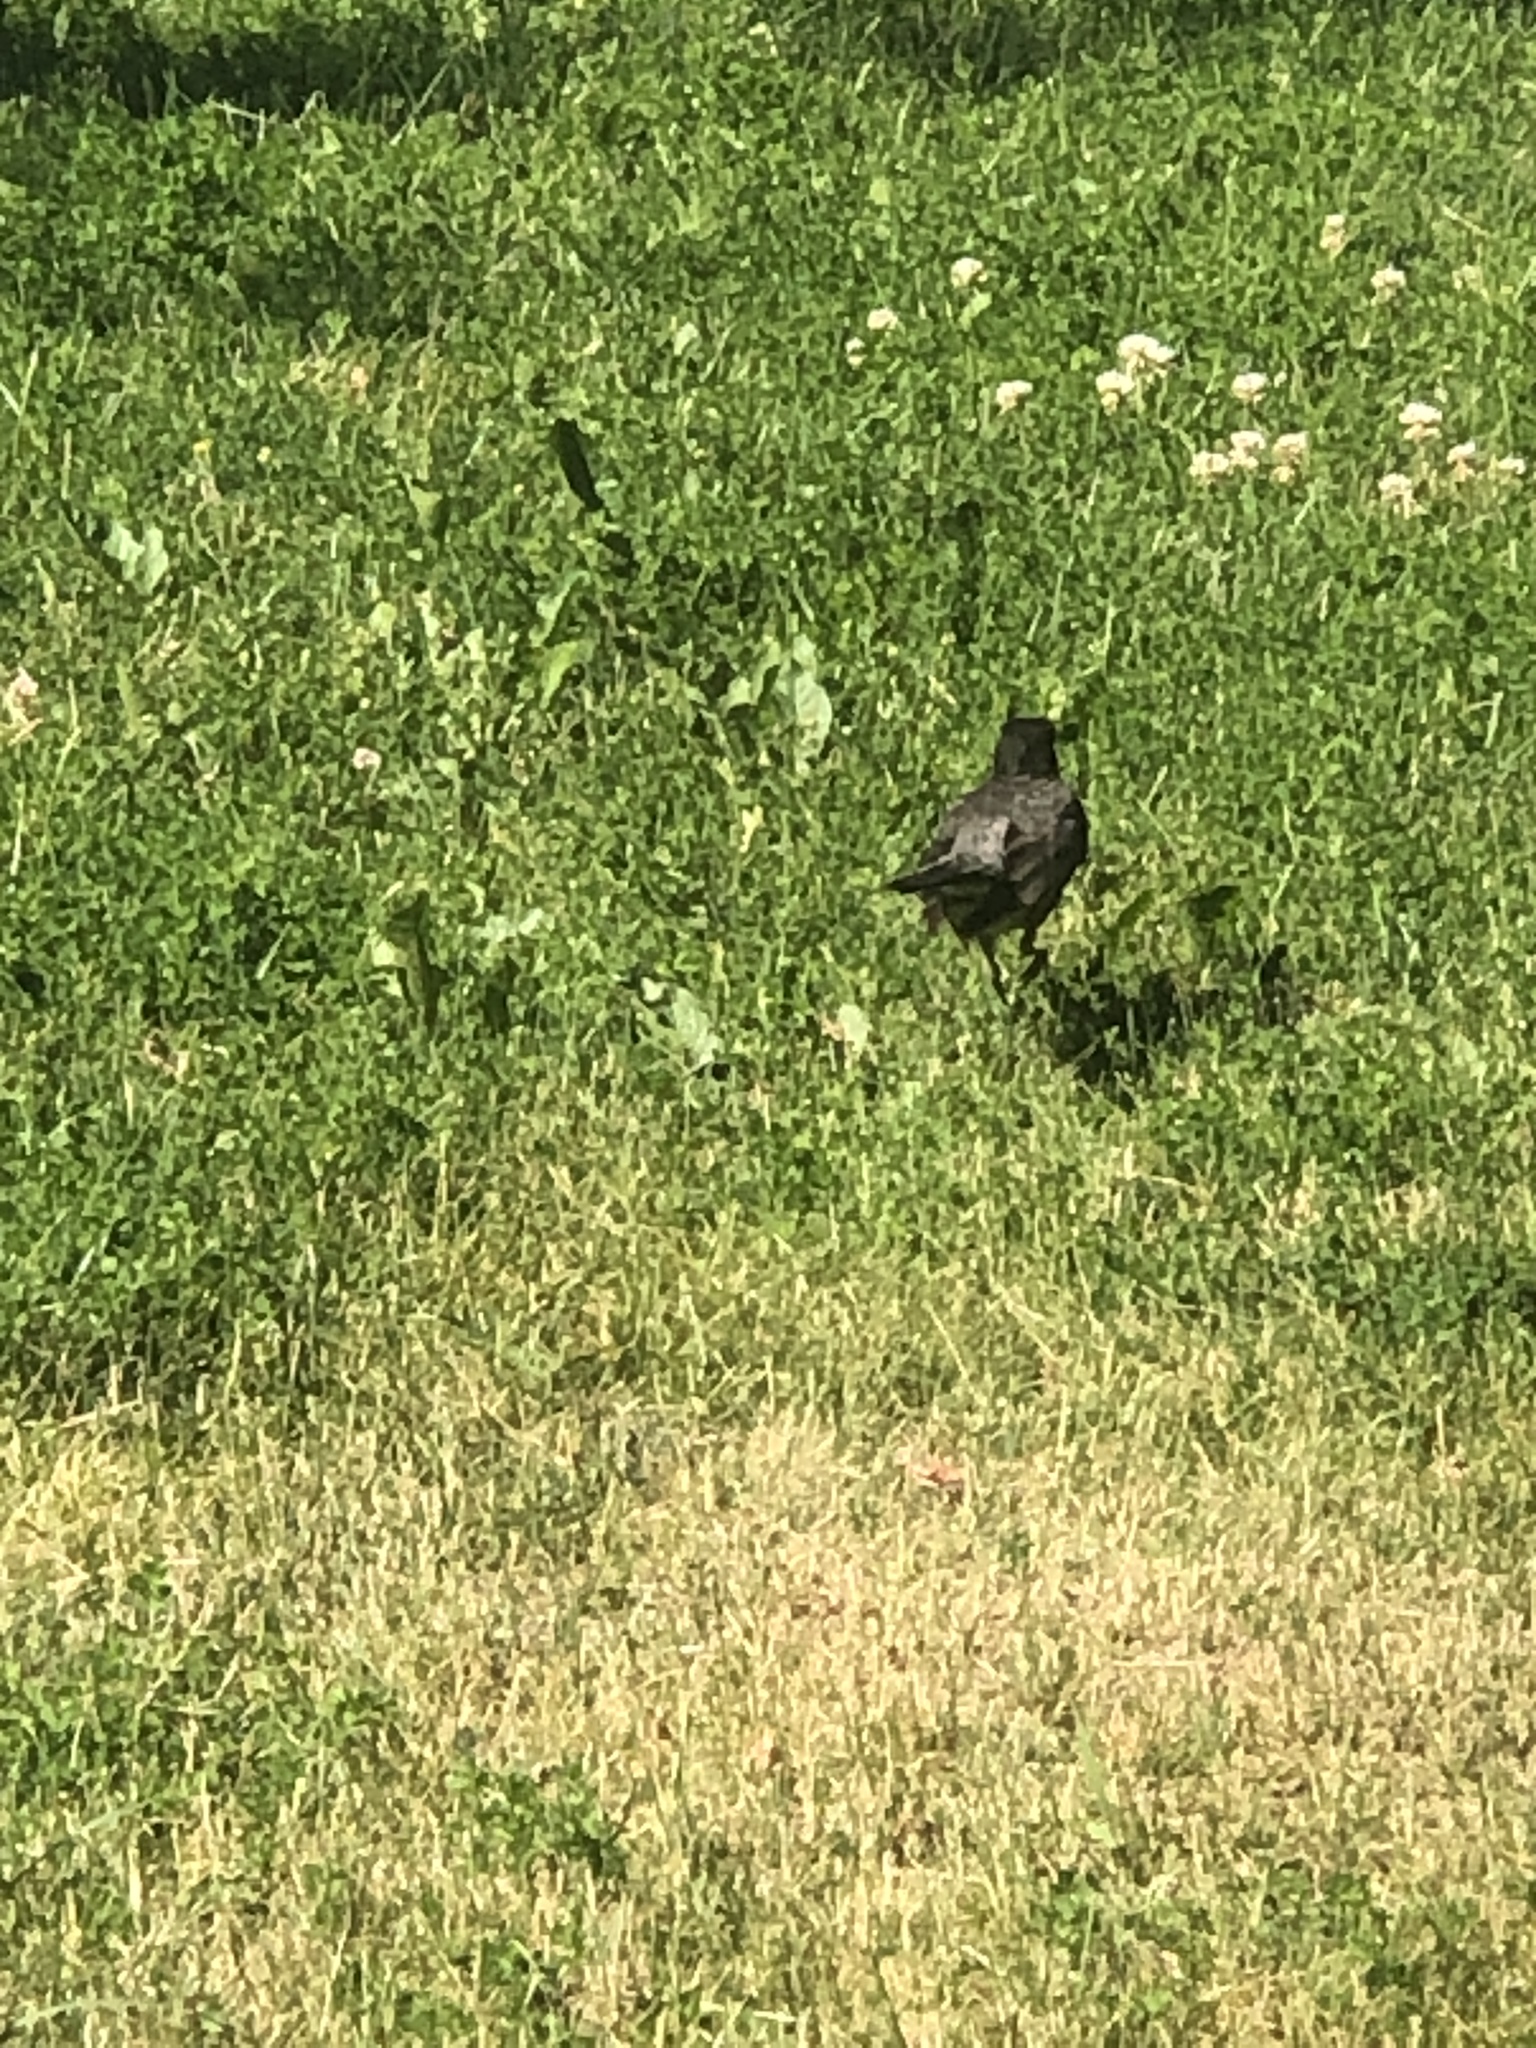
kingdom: Animalia
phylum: Chordata
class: Aves
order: Passeriformes
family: Turdidae
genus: Turdus
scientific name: Turdus migratorius
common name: American robin
